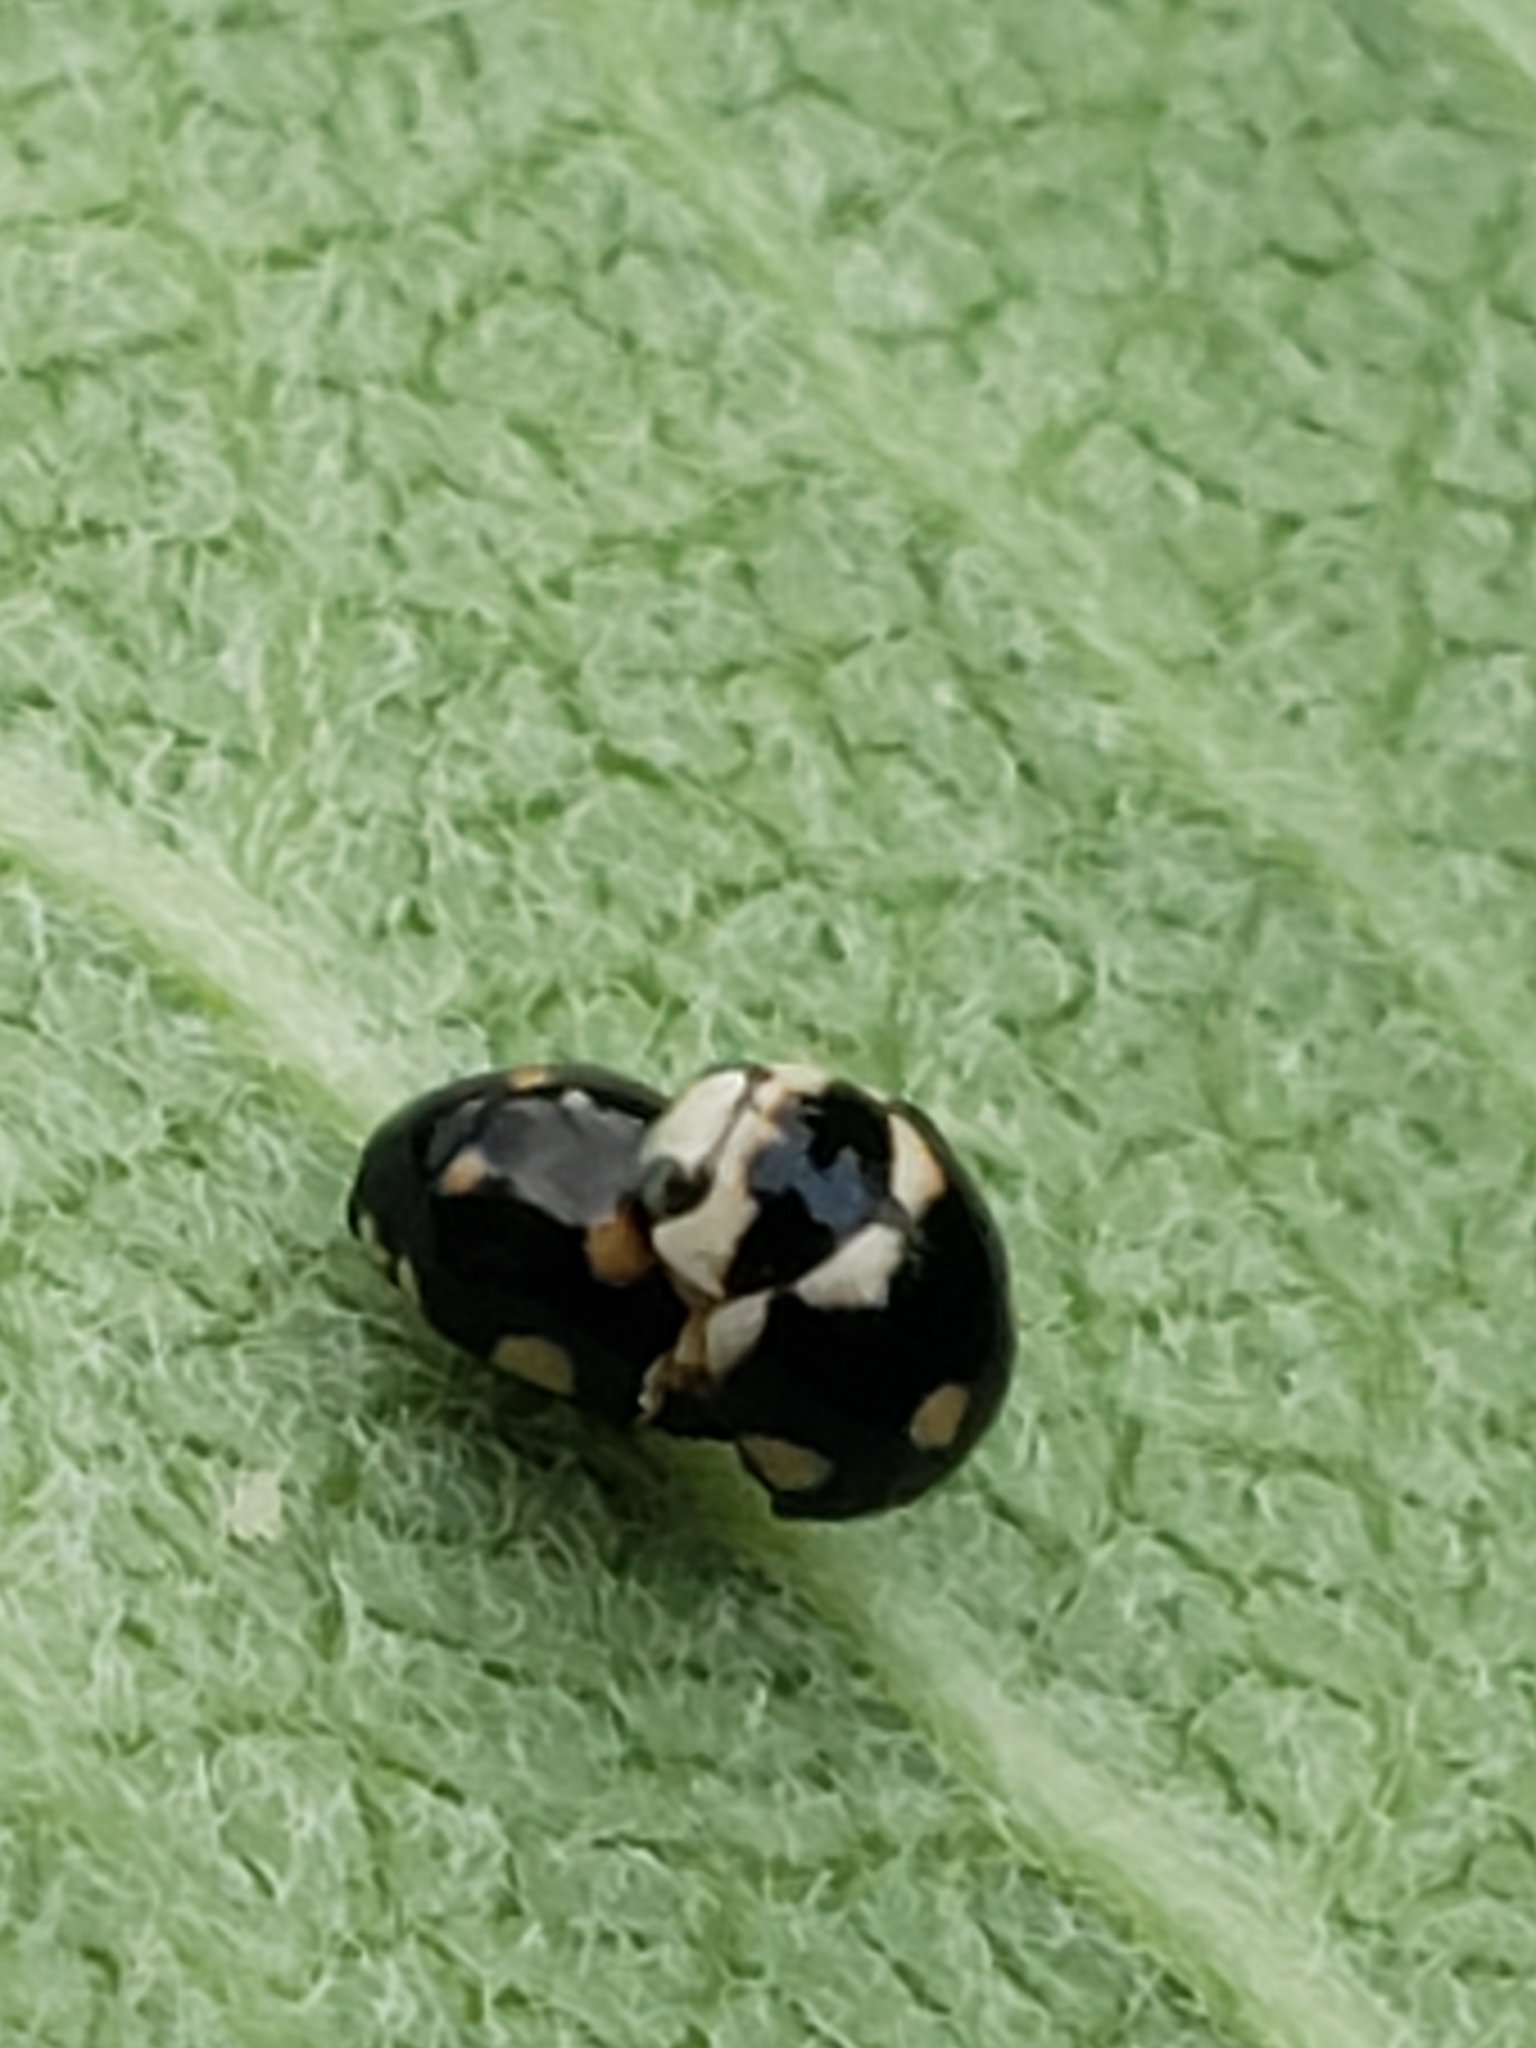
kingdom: Animalia
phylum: Arthropoda
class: Insecta
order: Coleoptera
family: Coccinellidae
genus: Brachiacantha
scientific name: Brachiacantha decempustulata
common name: Ten-spotted spurleg lady beetle
